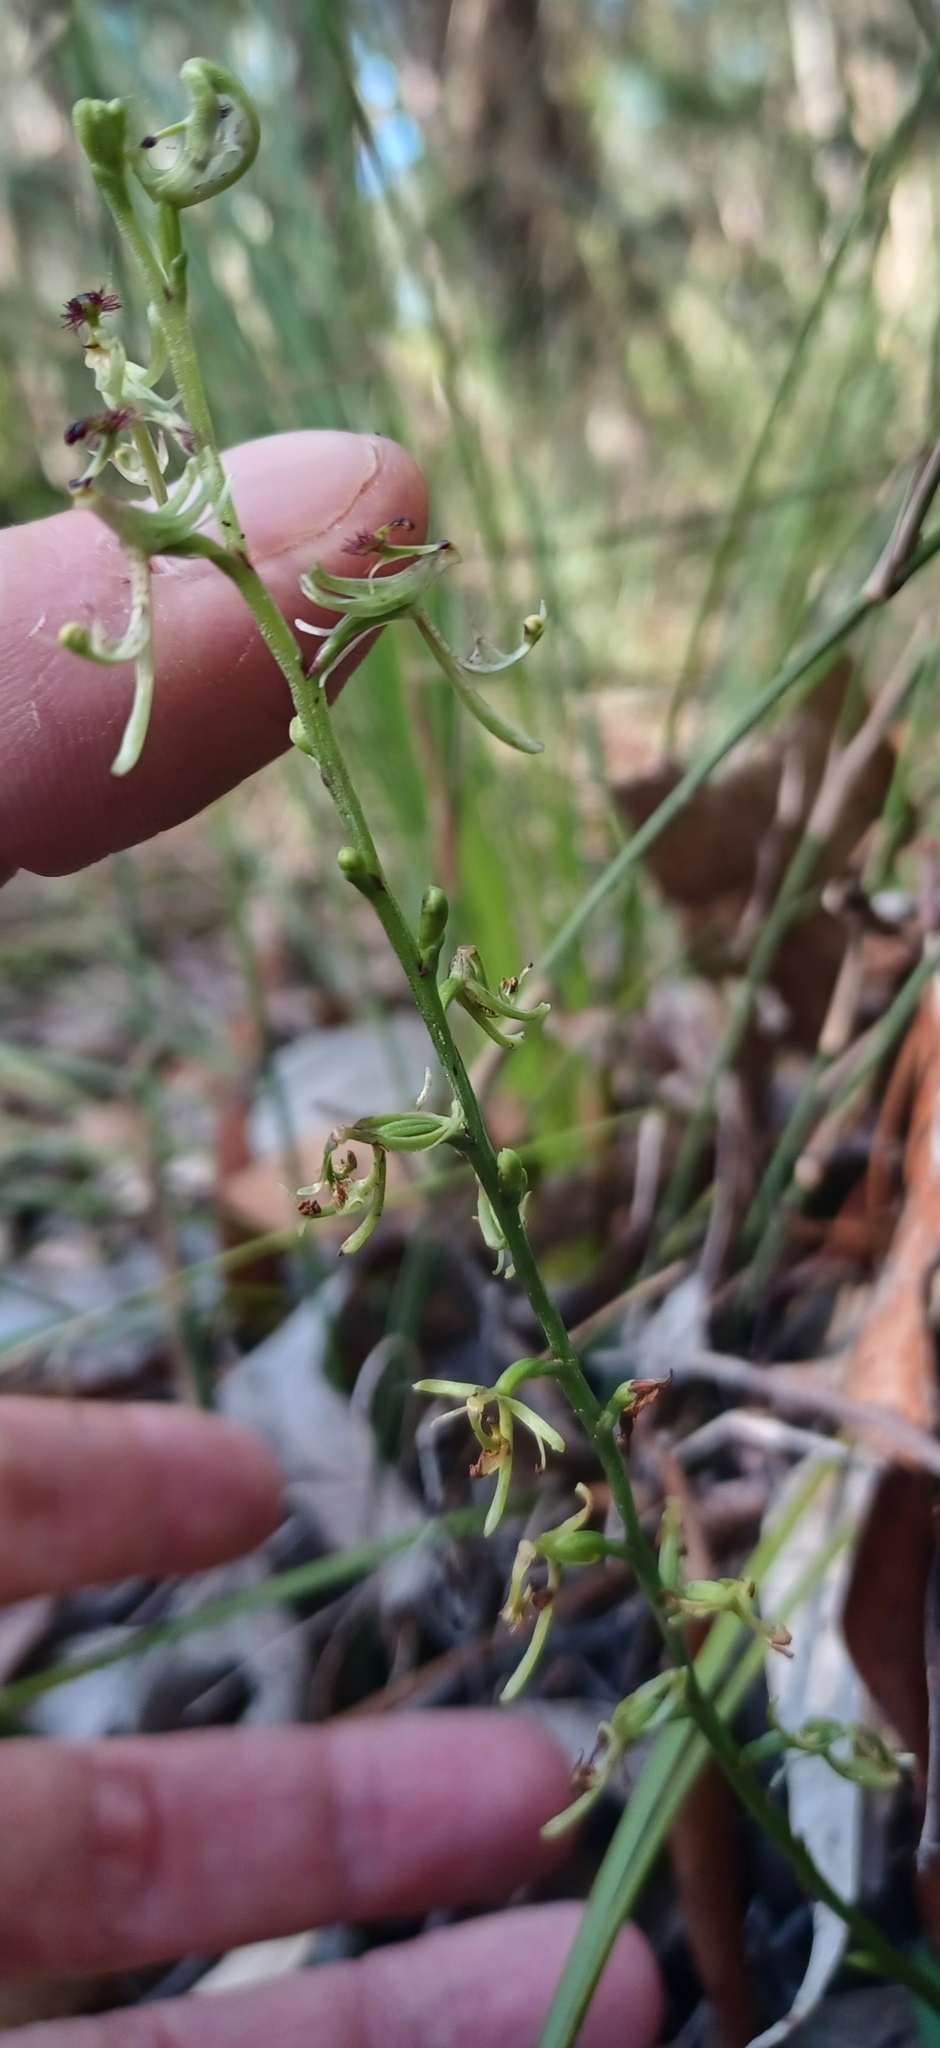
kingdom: Plantae
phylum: Tracheophyta
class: Liliopsida
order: Asparagales
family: Orchidaceae
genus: Arthrochilus
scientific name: Arthrochilus prolixus
